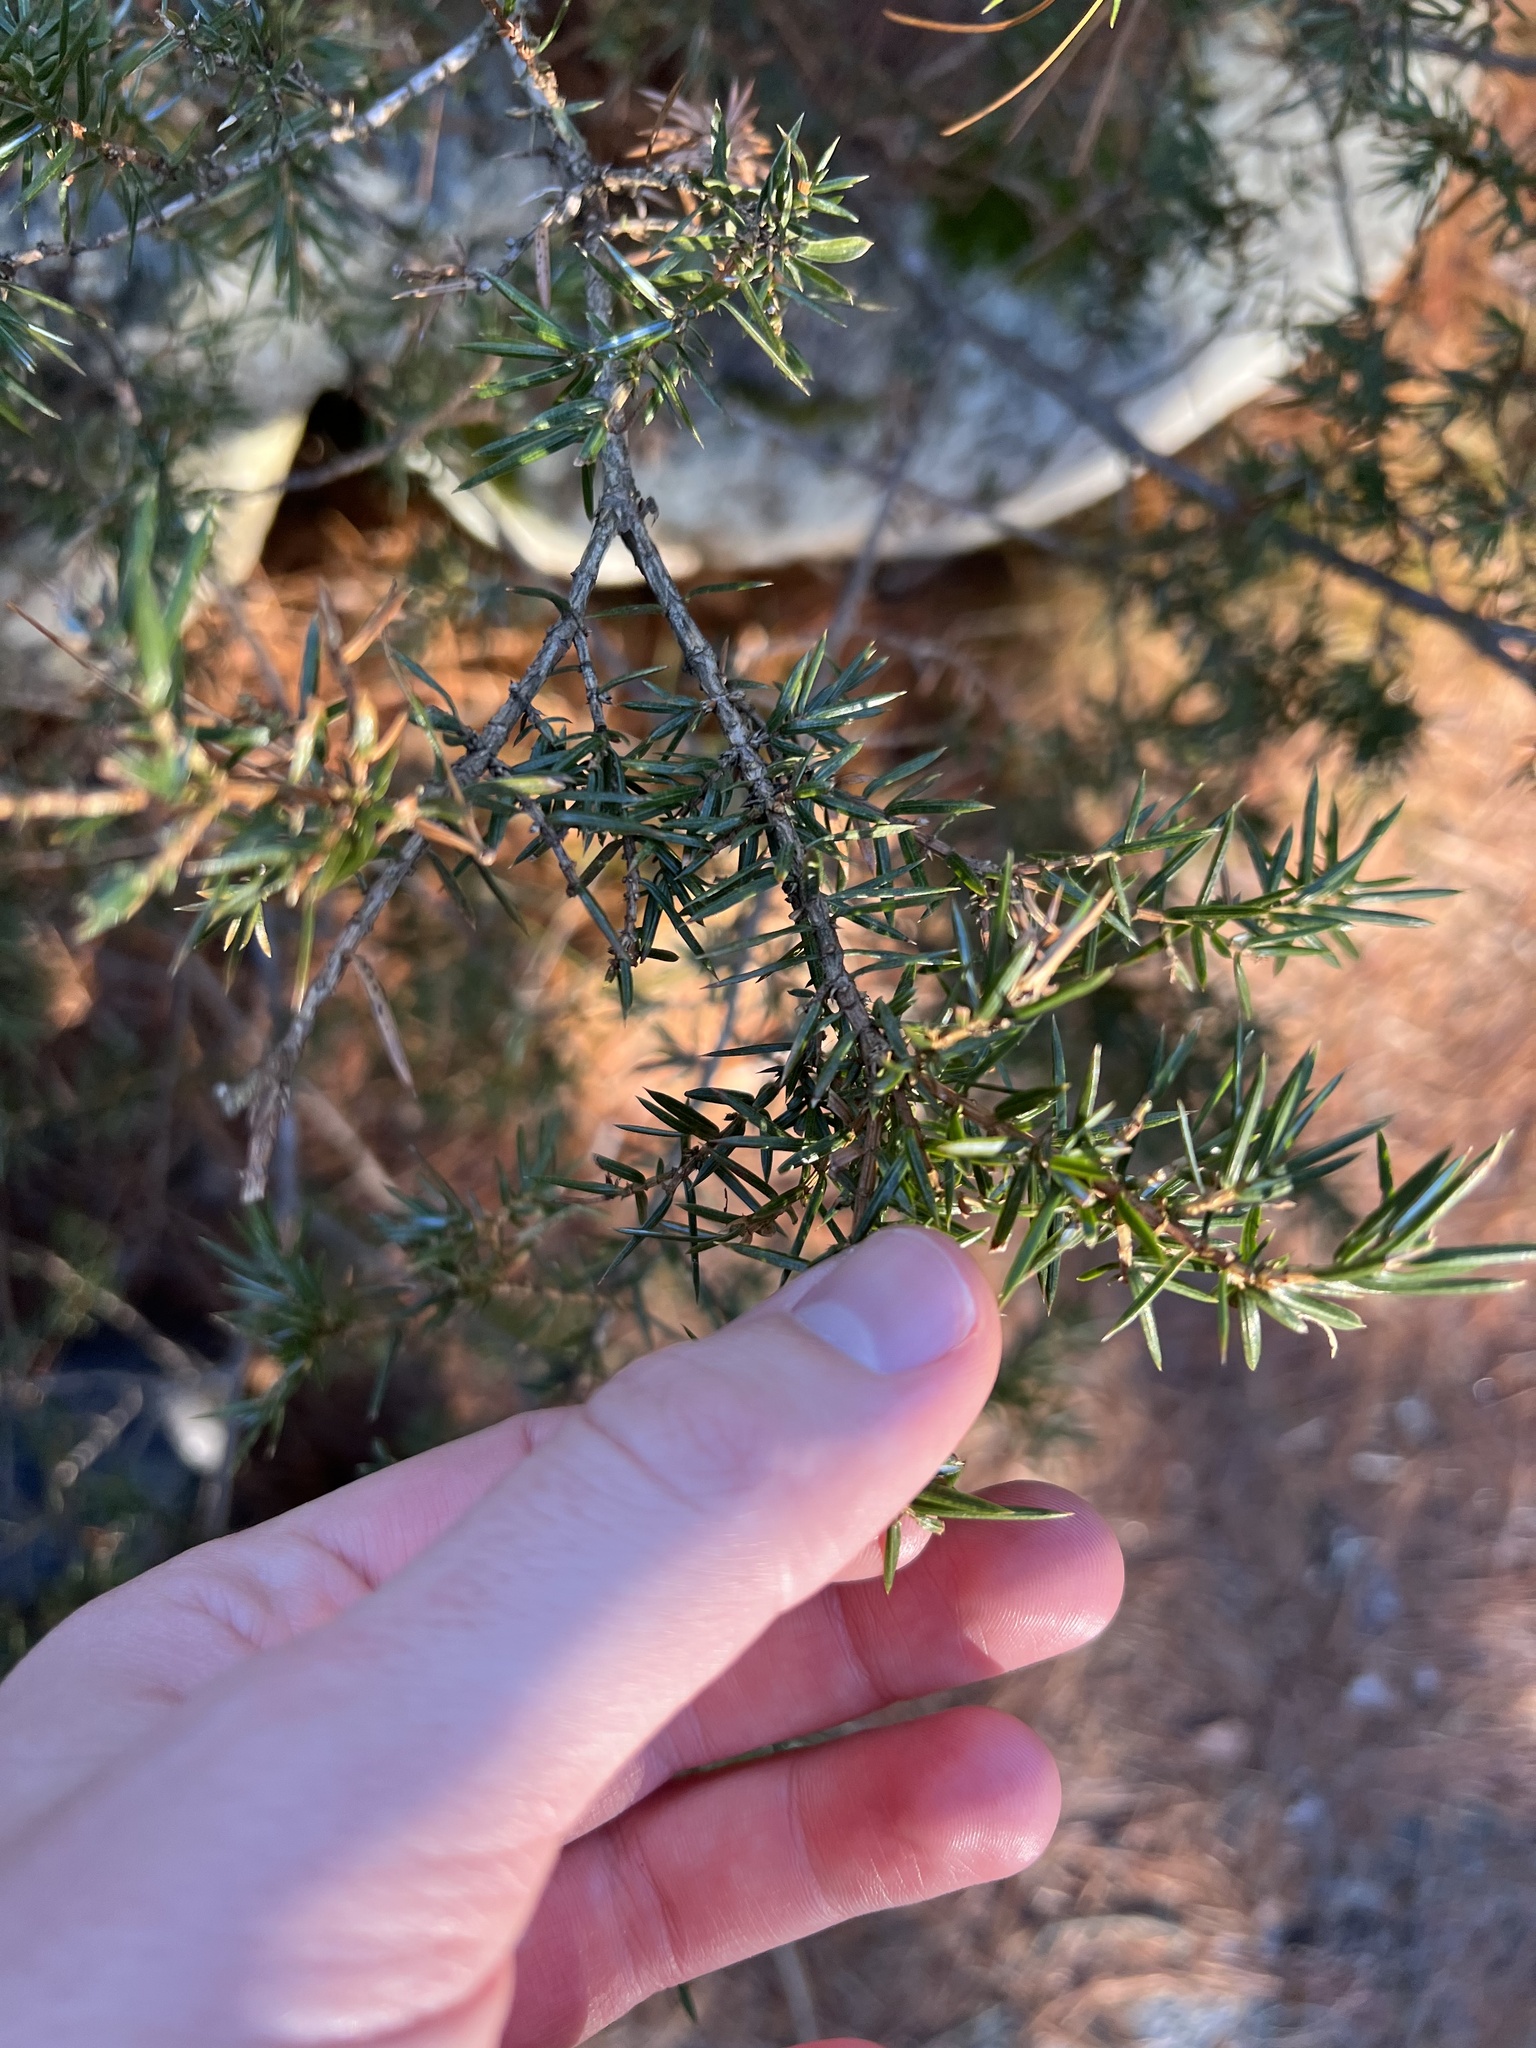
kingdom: Plantae
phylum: Tracheophyta
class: Pinopsida
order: Pinales
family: Cupressaceae
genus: Juniperus
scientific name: Juniperus communis
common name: Common juniper
